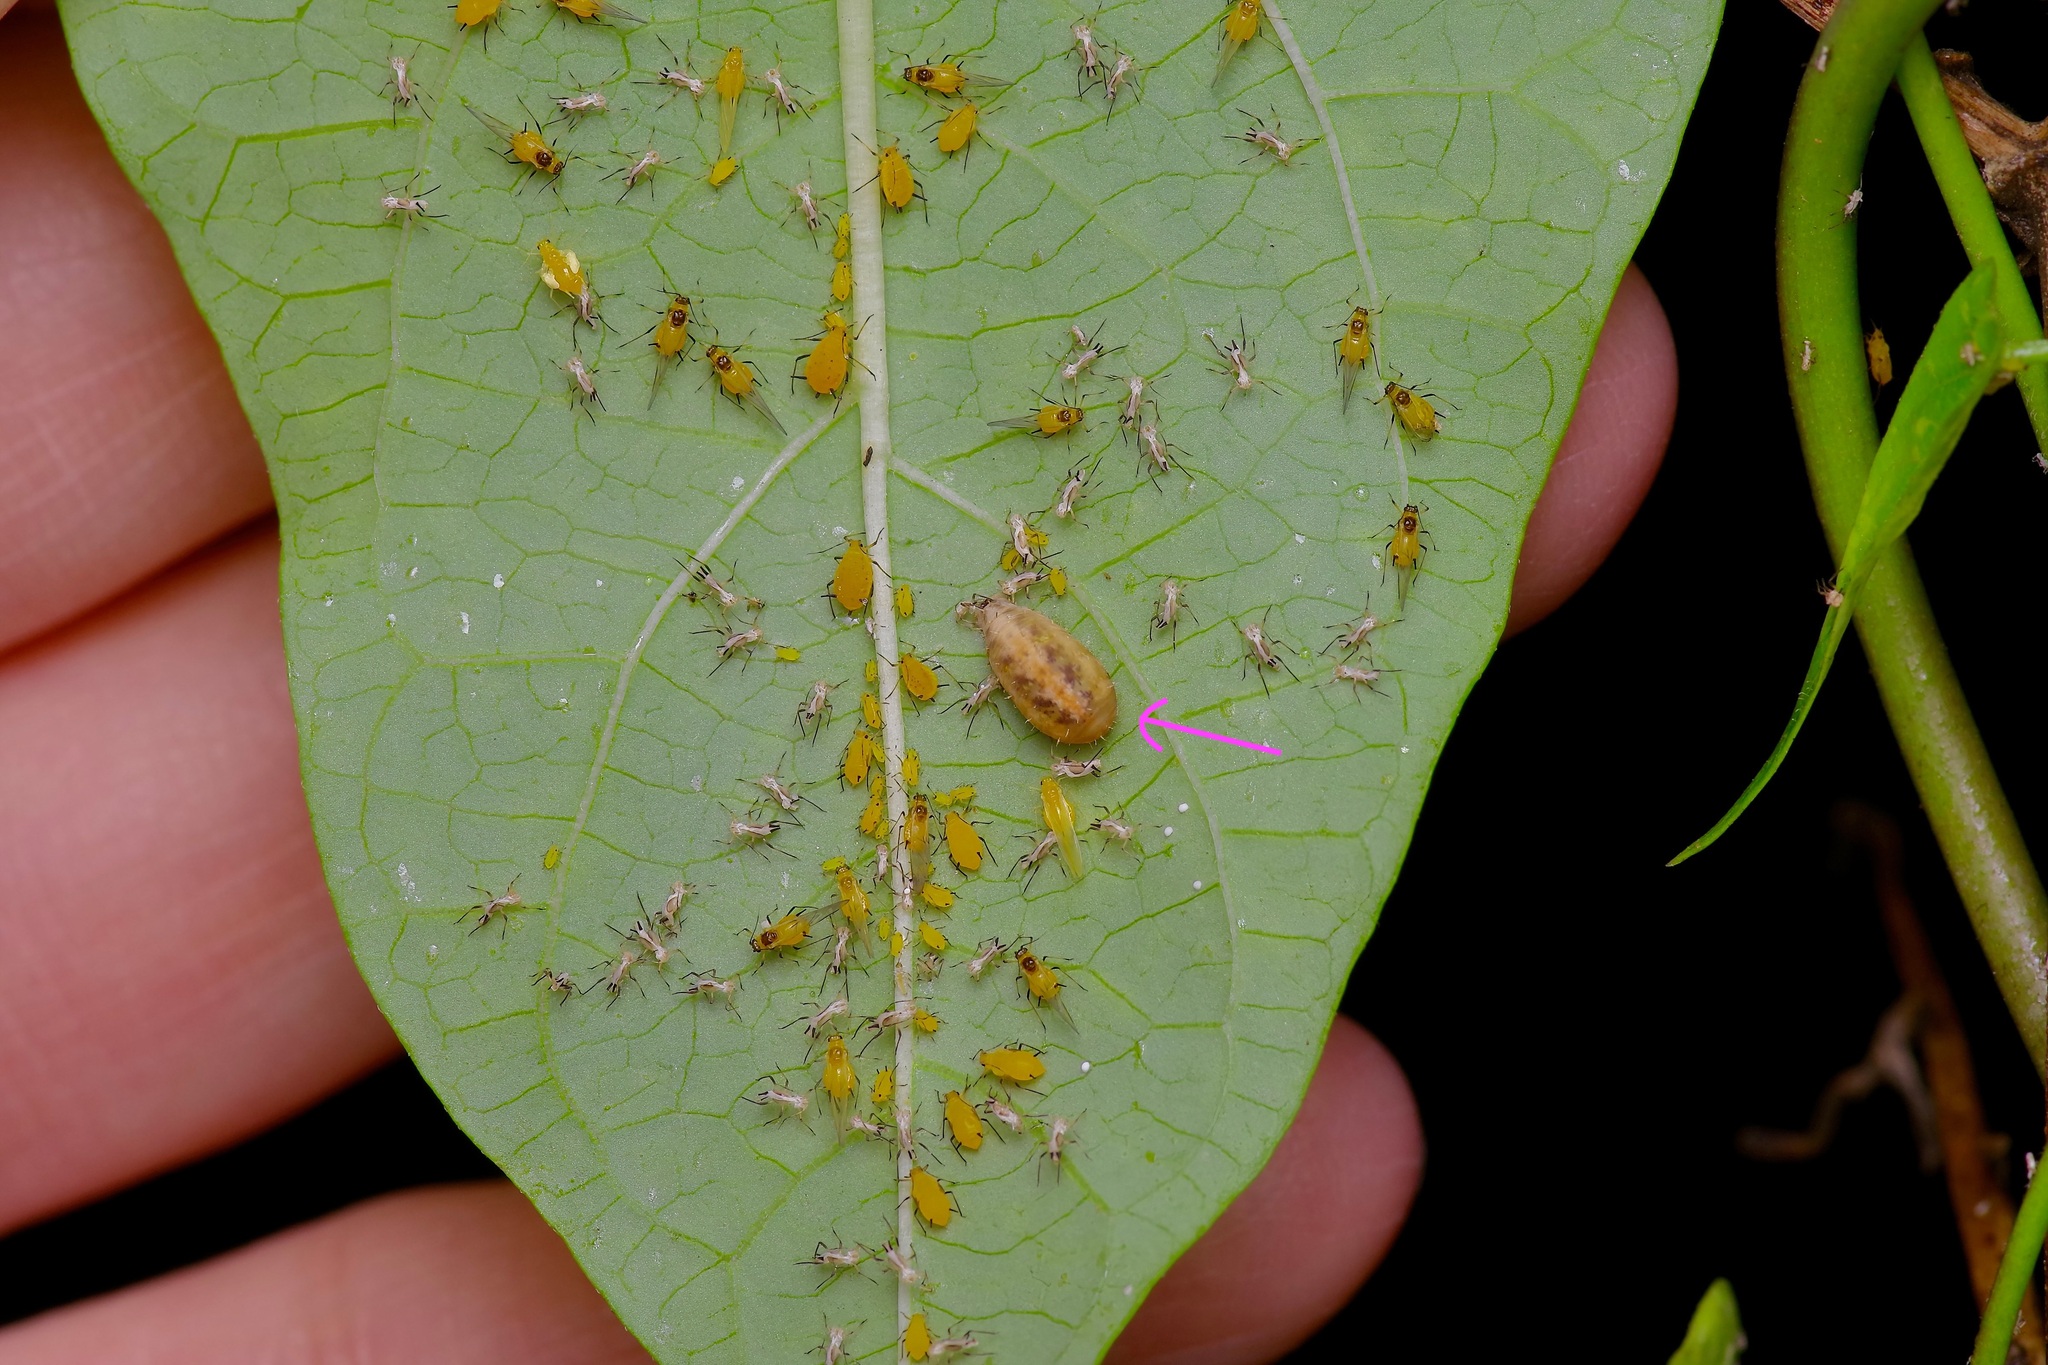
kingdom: Animalia
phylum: Arthropoda
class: Insecta
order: Diptera
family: Syrphidae
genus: Dioprosopa
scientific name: Dioprosopa clavatus
